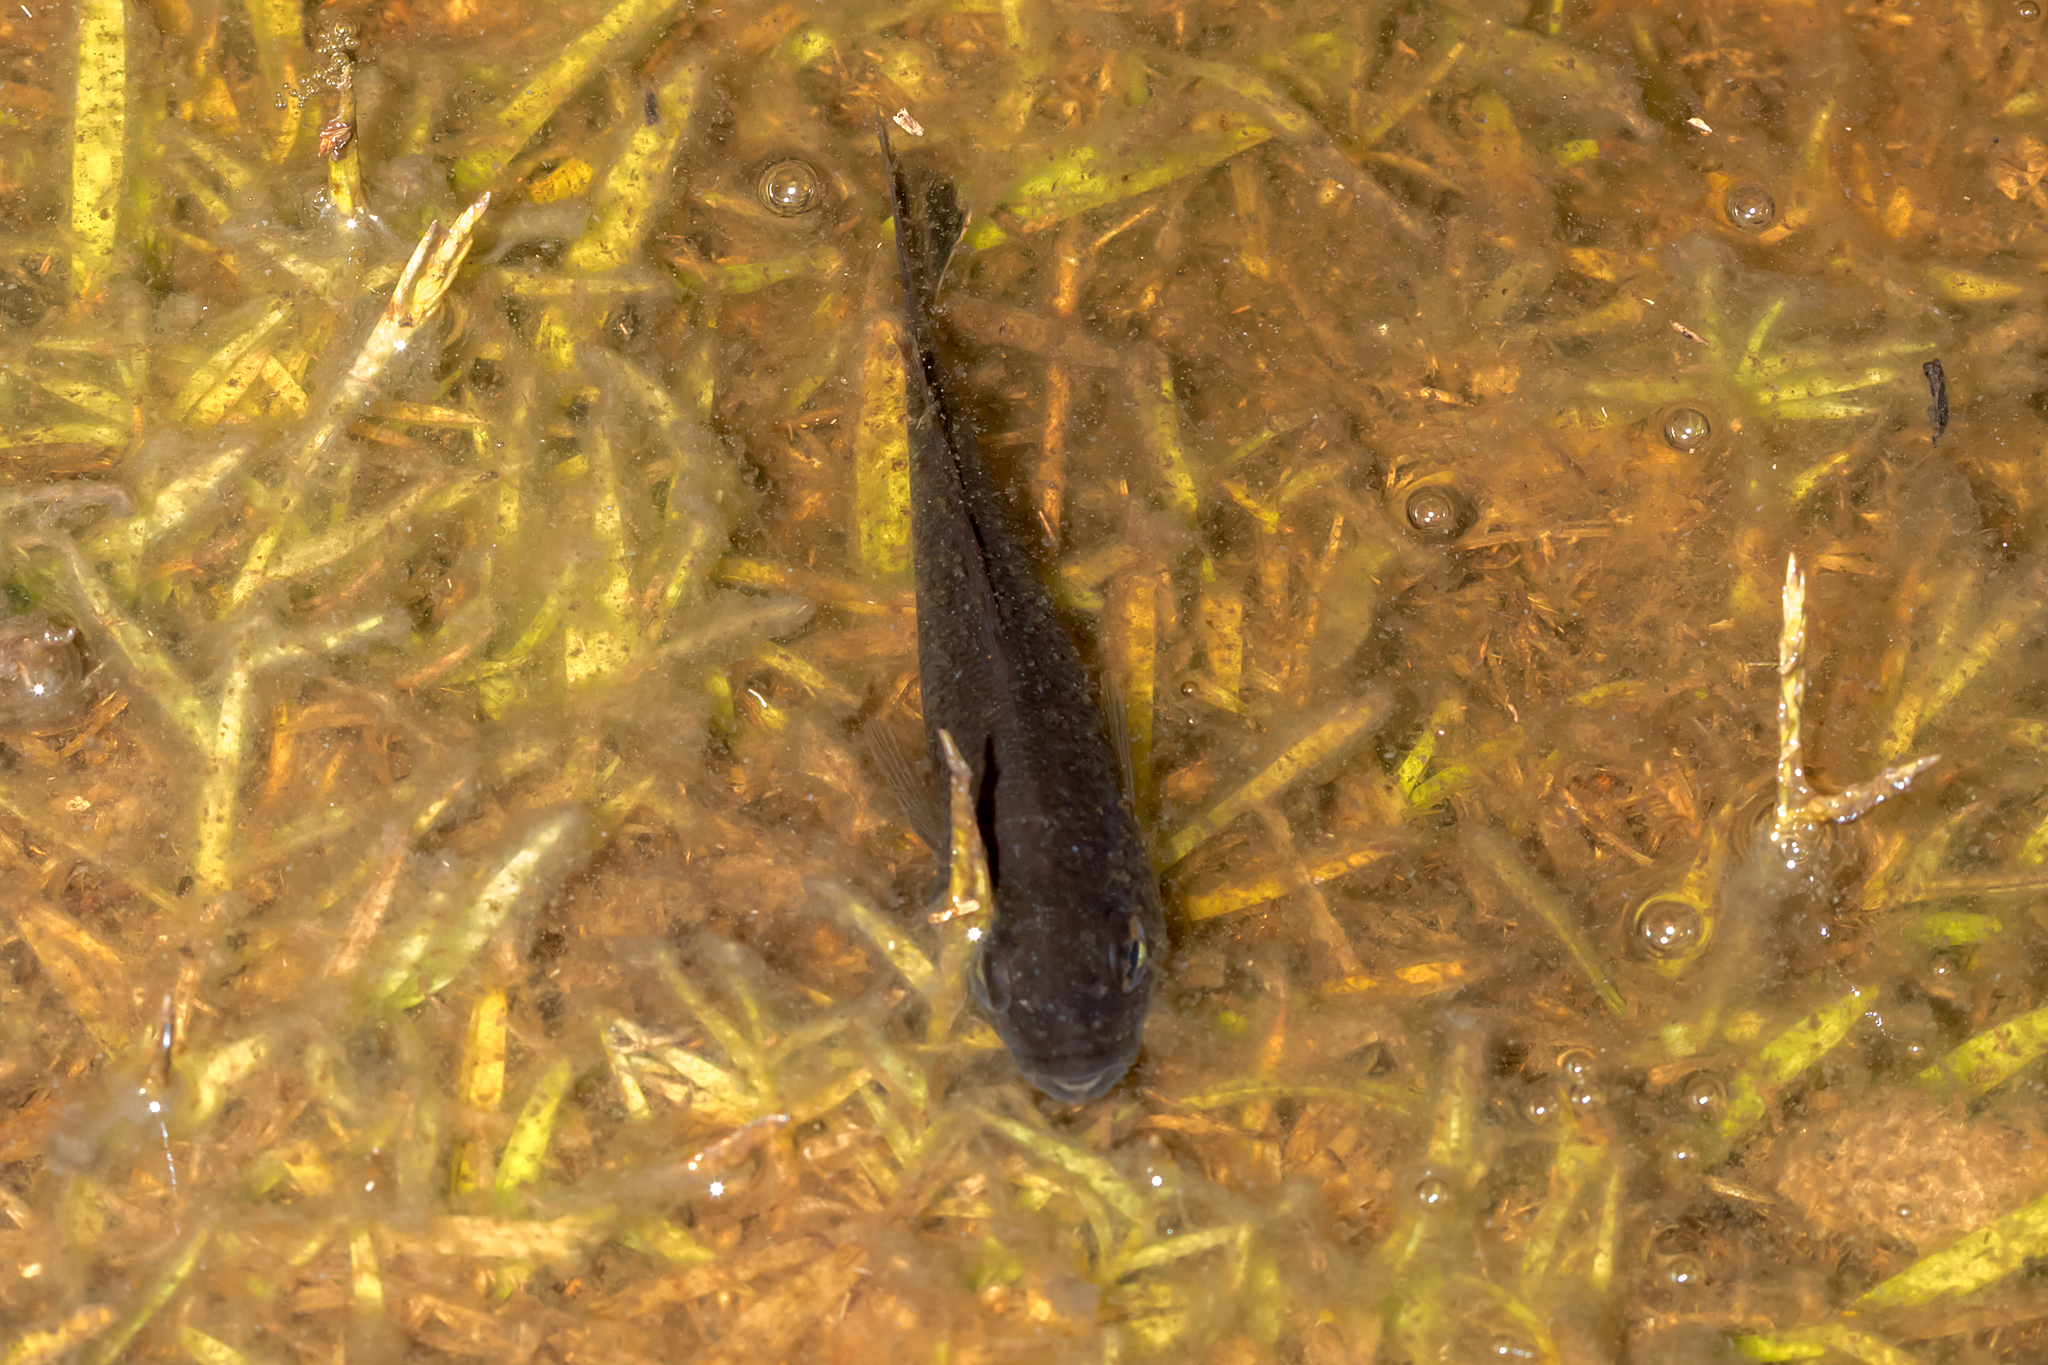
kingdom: Animalia
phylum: Chordata
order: Perciformes
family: Terapontidae
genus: Leiopotherapon
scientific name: Leiopotherapon unicolor
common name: Bobby
